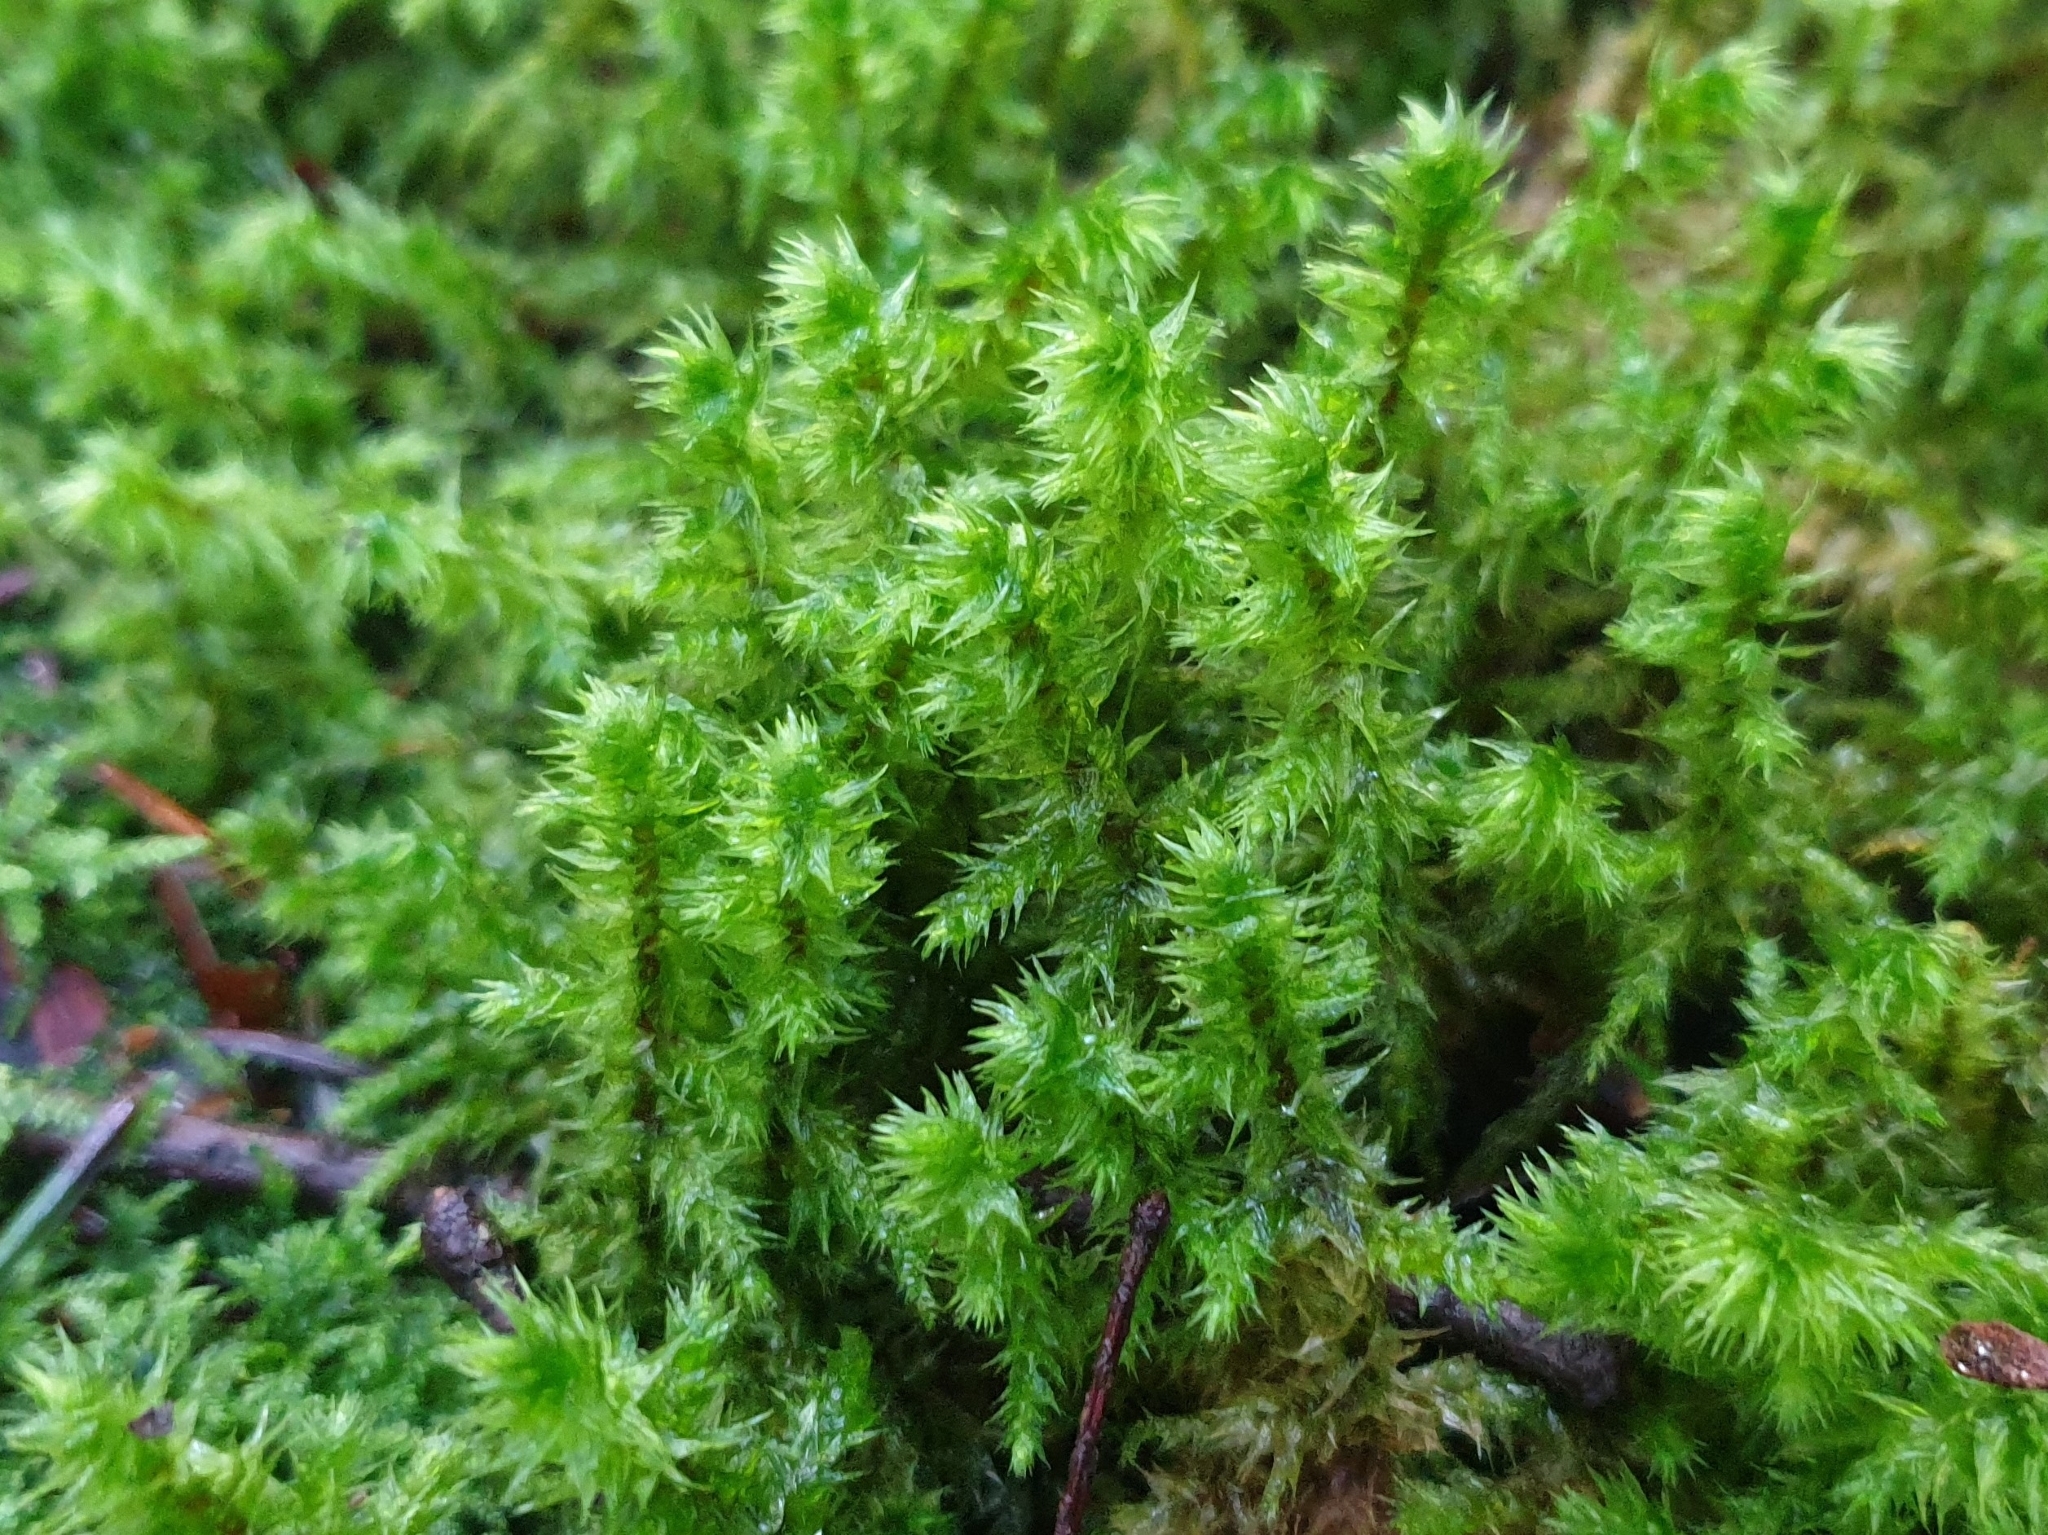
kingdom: Plantae
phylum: Bryophyta
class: Bryopsida
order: Hypnales
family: Hylocomiaceae
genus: Hylocomiadelphus
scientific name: Hylocomiadelphus triquetrus
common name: Rough goose neck moss
